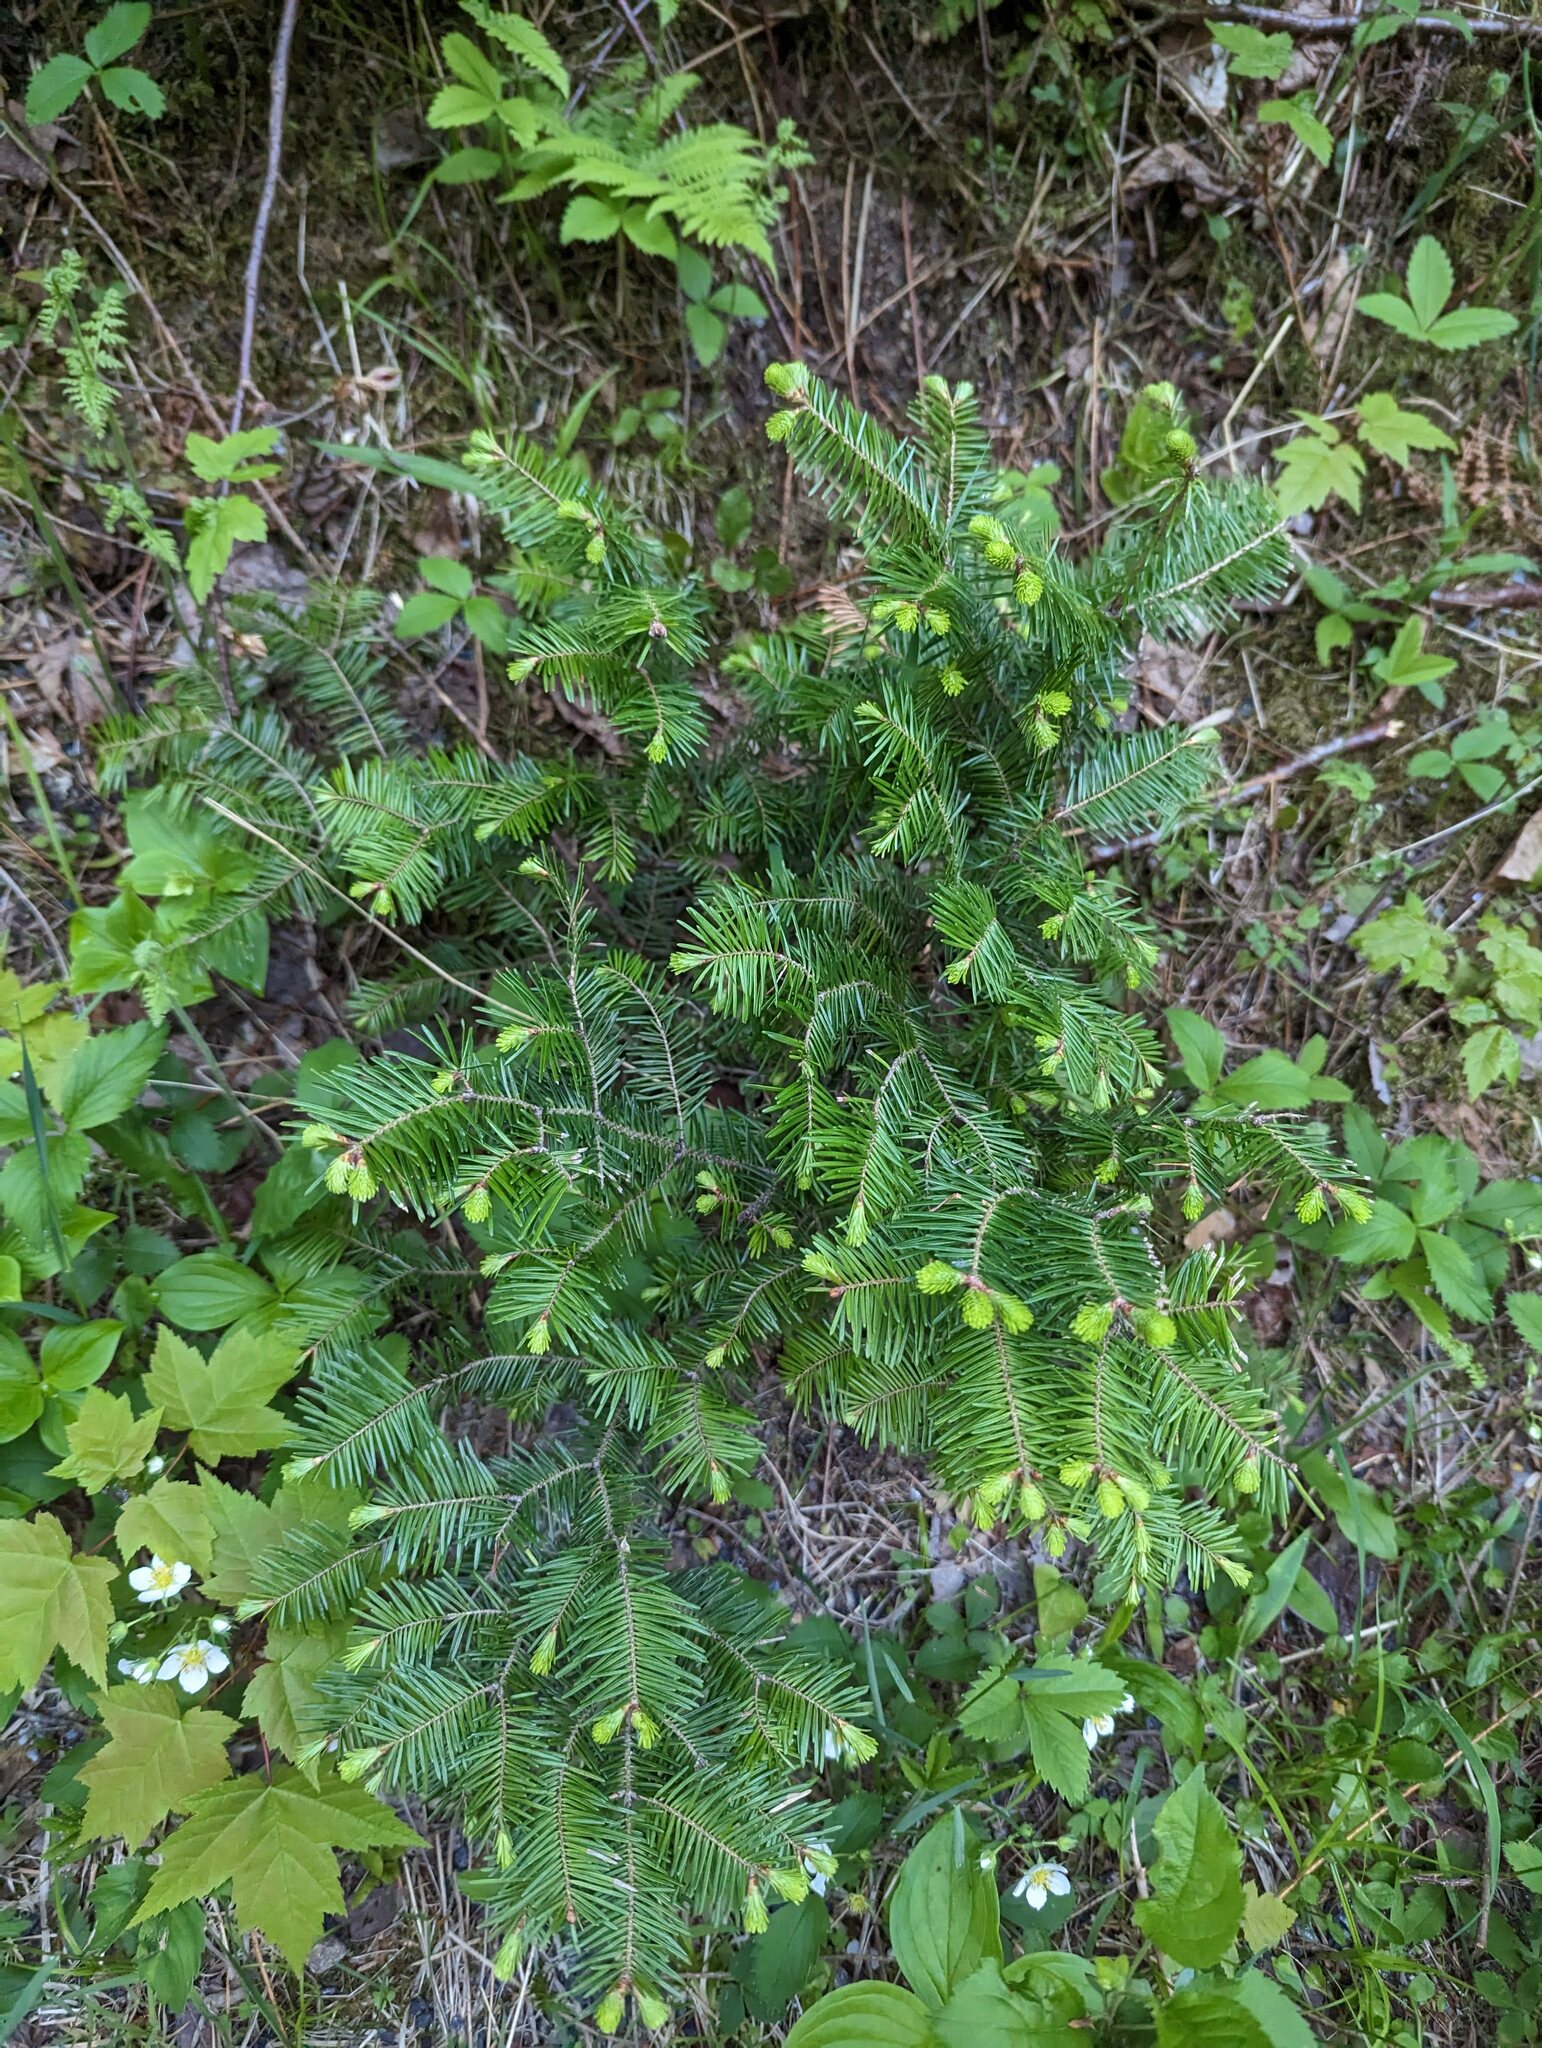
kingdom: Plantae
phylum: Tracheophyta
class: Pinopsida
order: Pinales
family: Pinaceae
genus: Abies
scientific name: Abies balsamea
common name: Balsam fir
